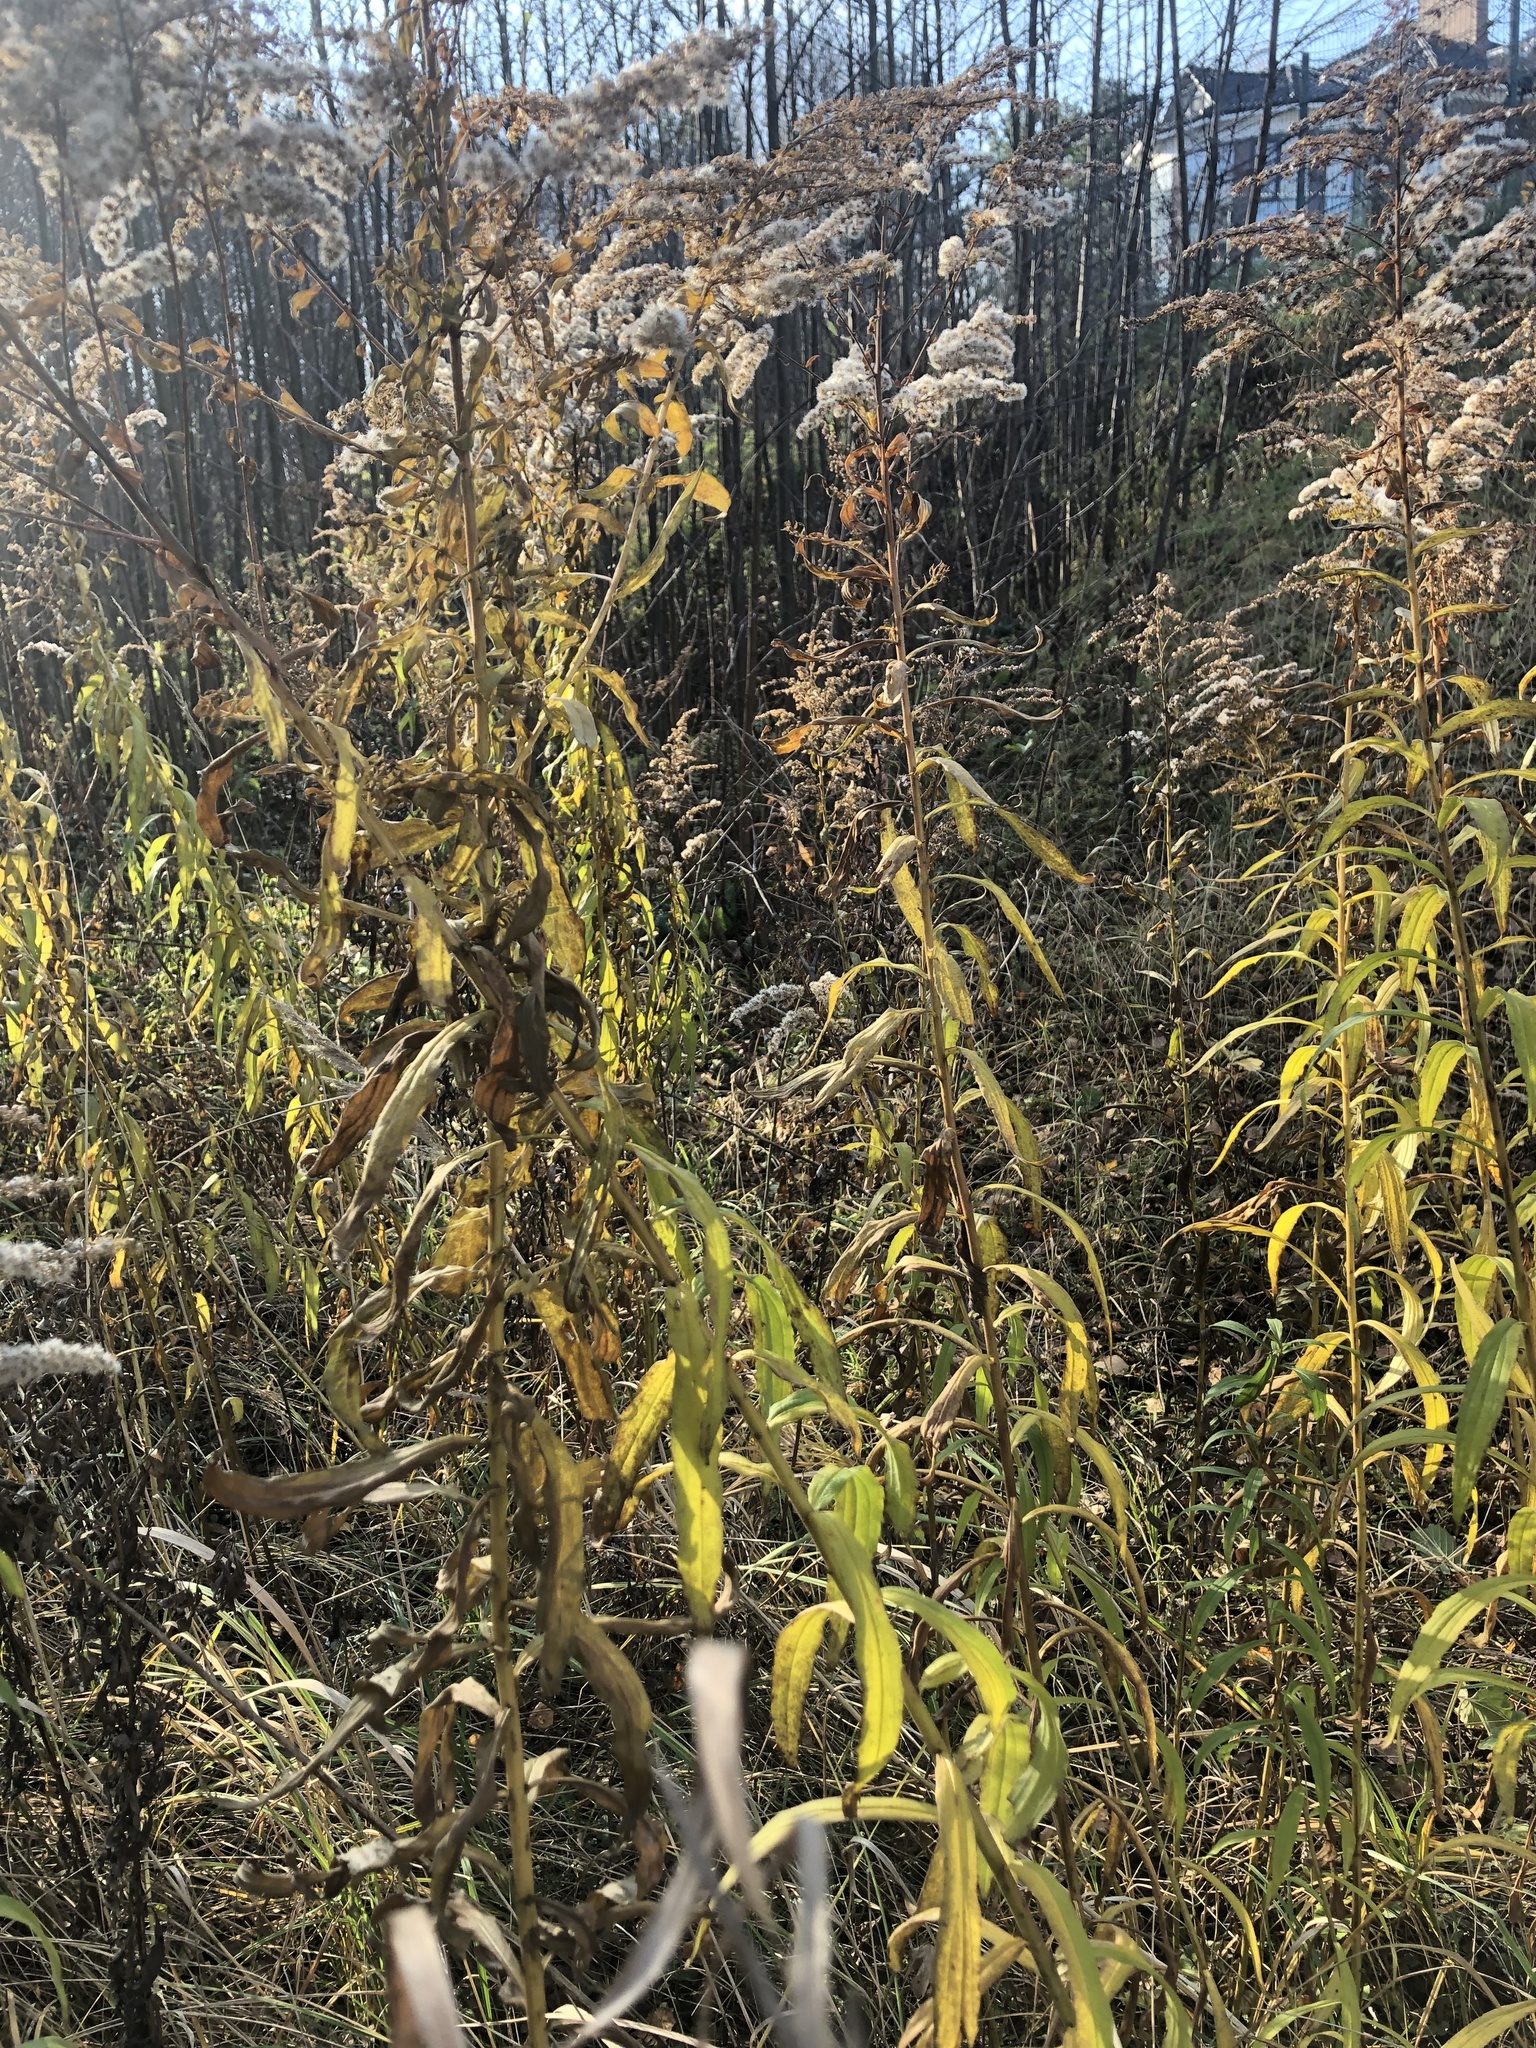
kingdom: Plantae
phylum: Tracheophyta
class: Magnoliopsida
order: Asterales
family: Asteraceae
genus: Solidago
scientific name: Solidago canadensis
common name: Canada goldenrod
